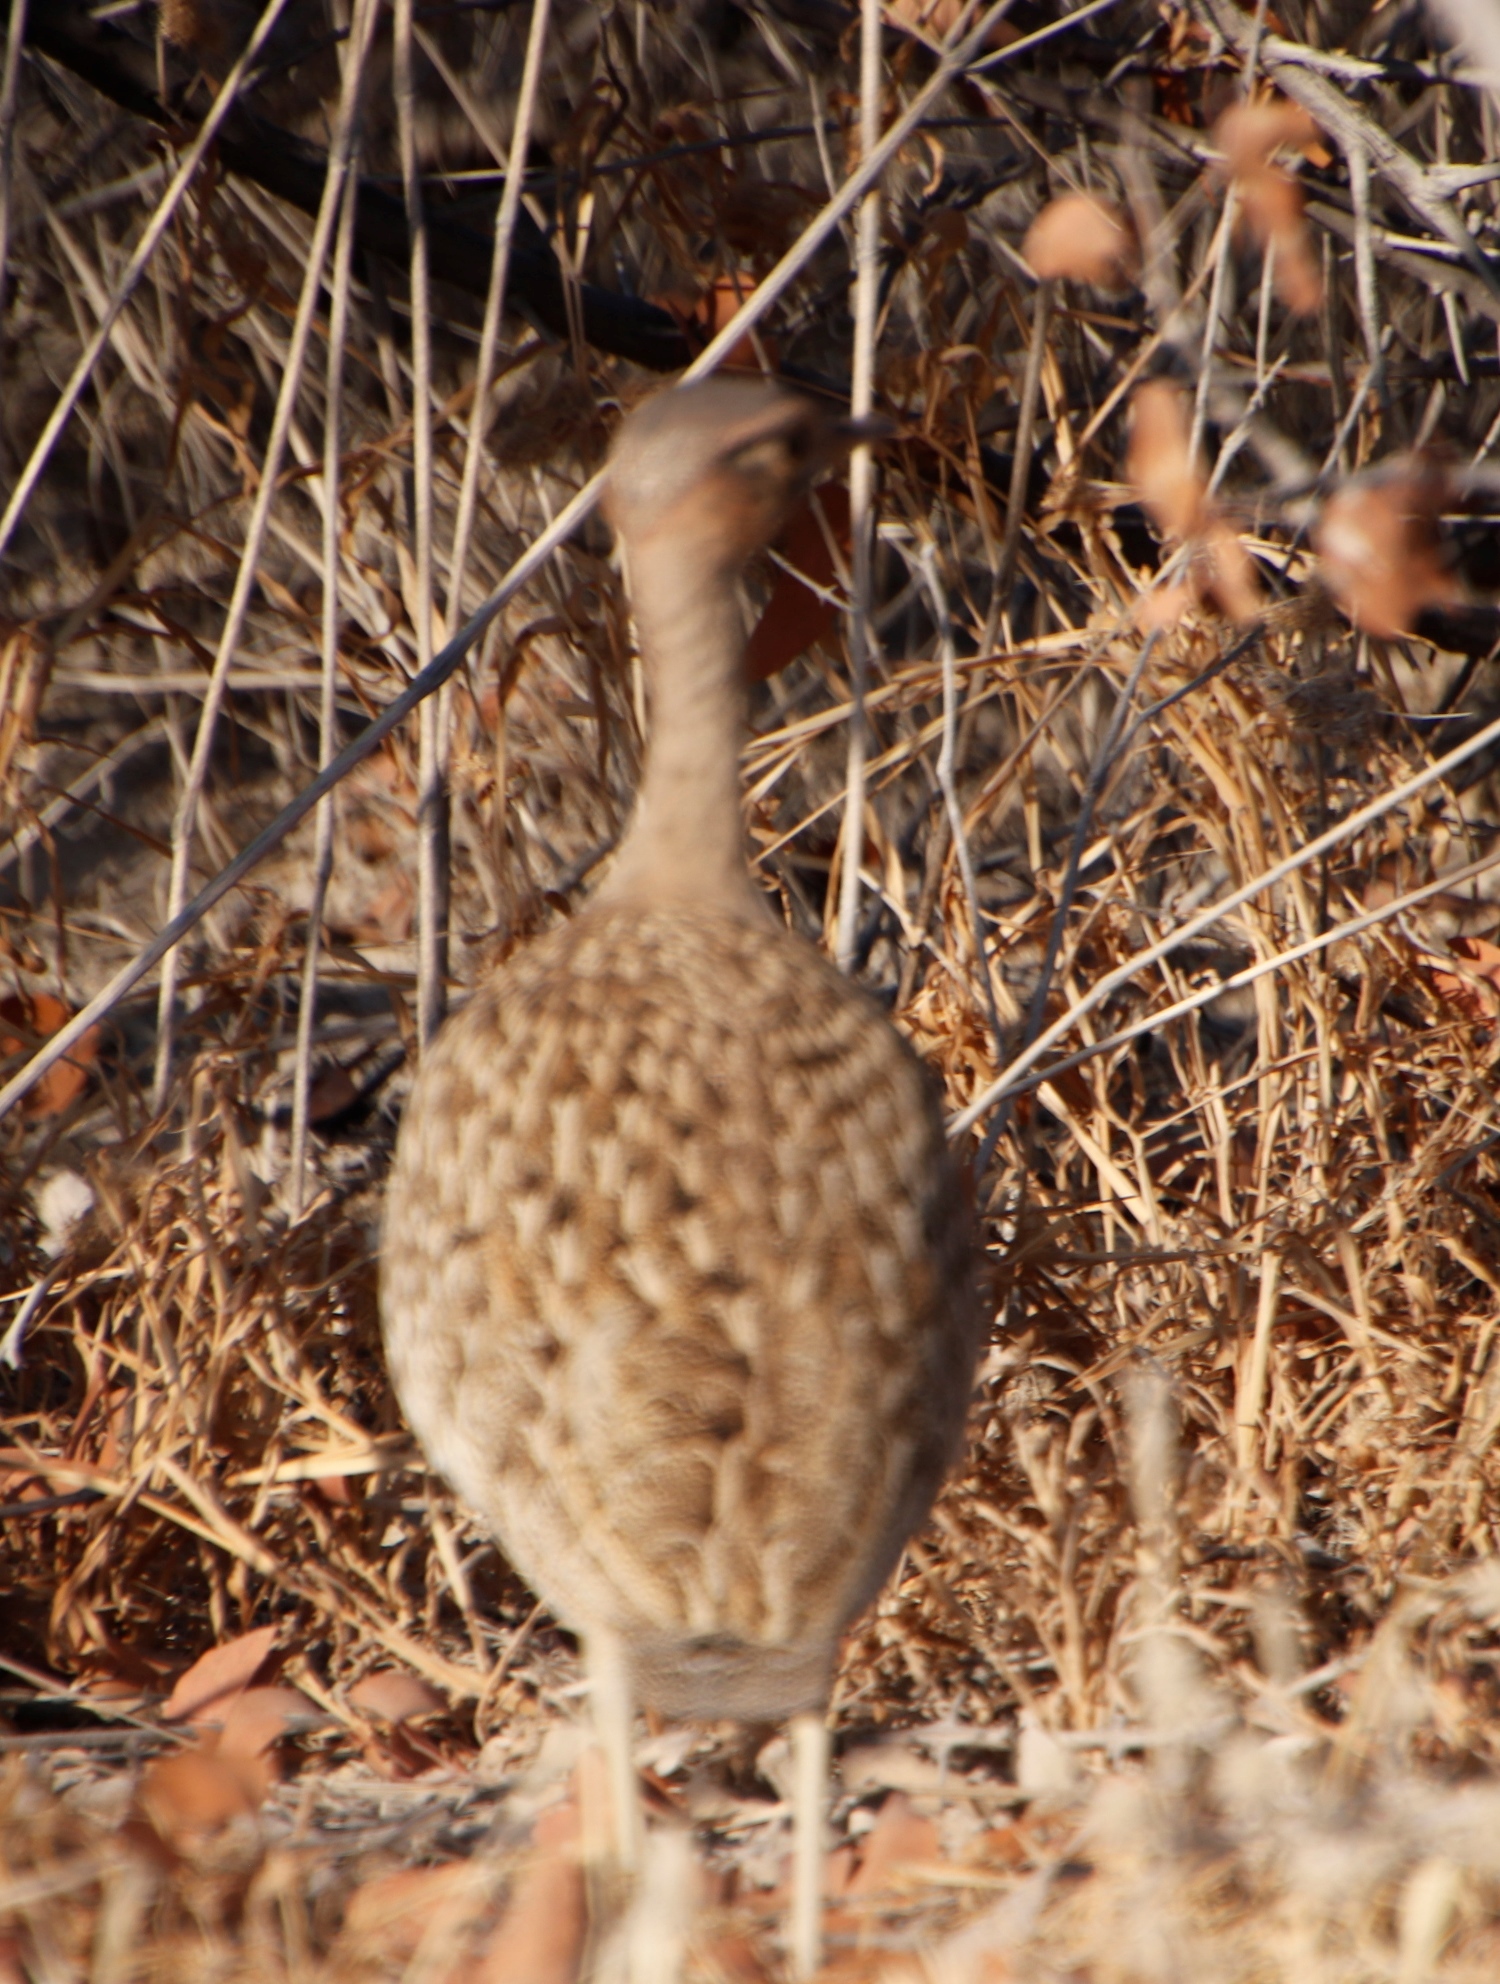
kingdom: Animalia
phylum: Chordata
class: Aves
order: Otidiformes
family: Otididae
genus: Lophotis
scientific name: Lophotis ruficrista
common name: Red-crested korhaan
